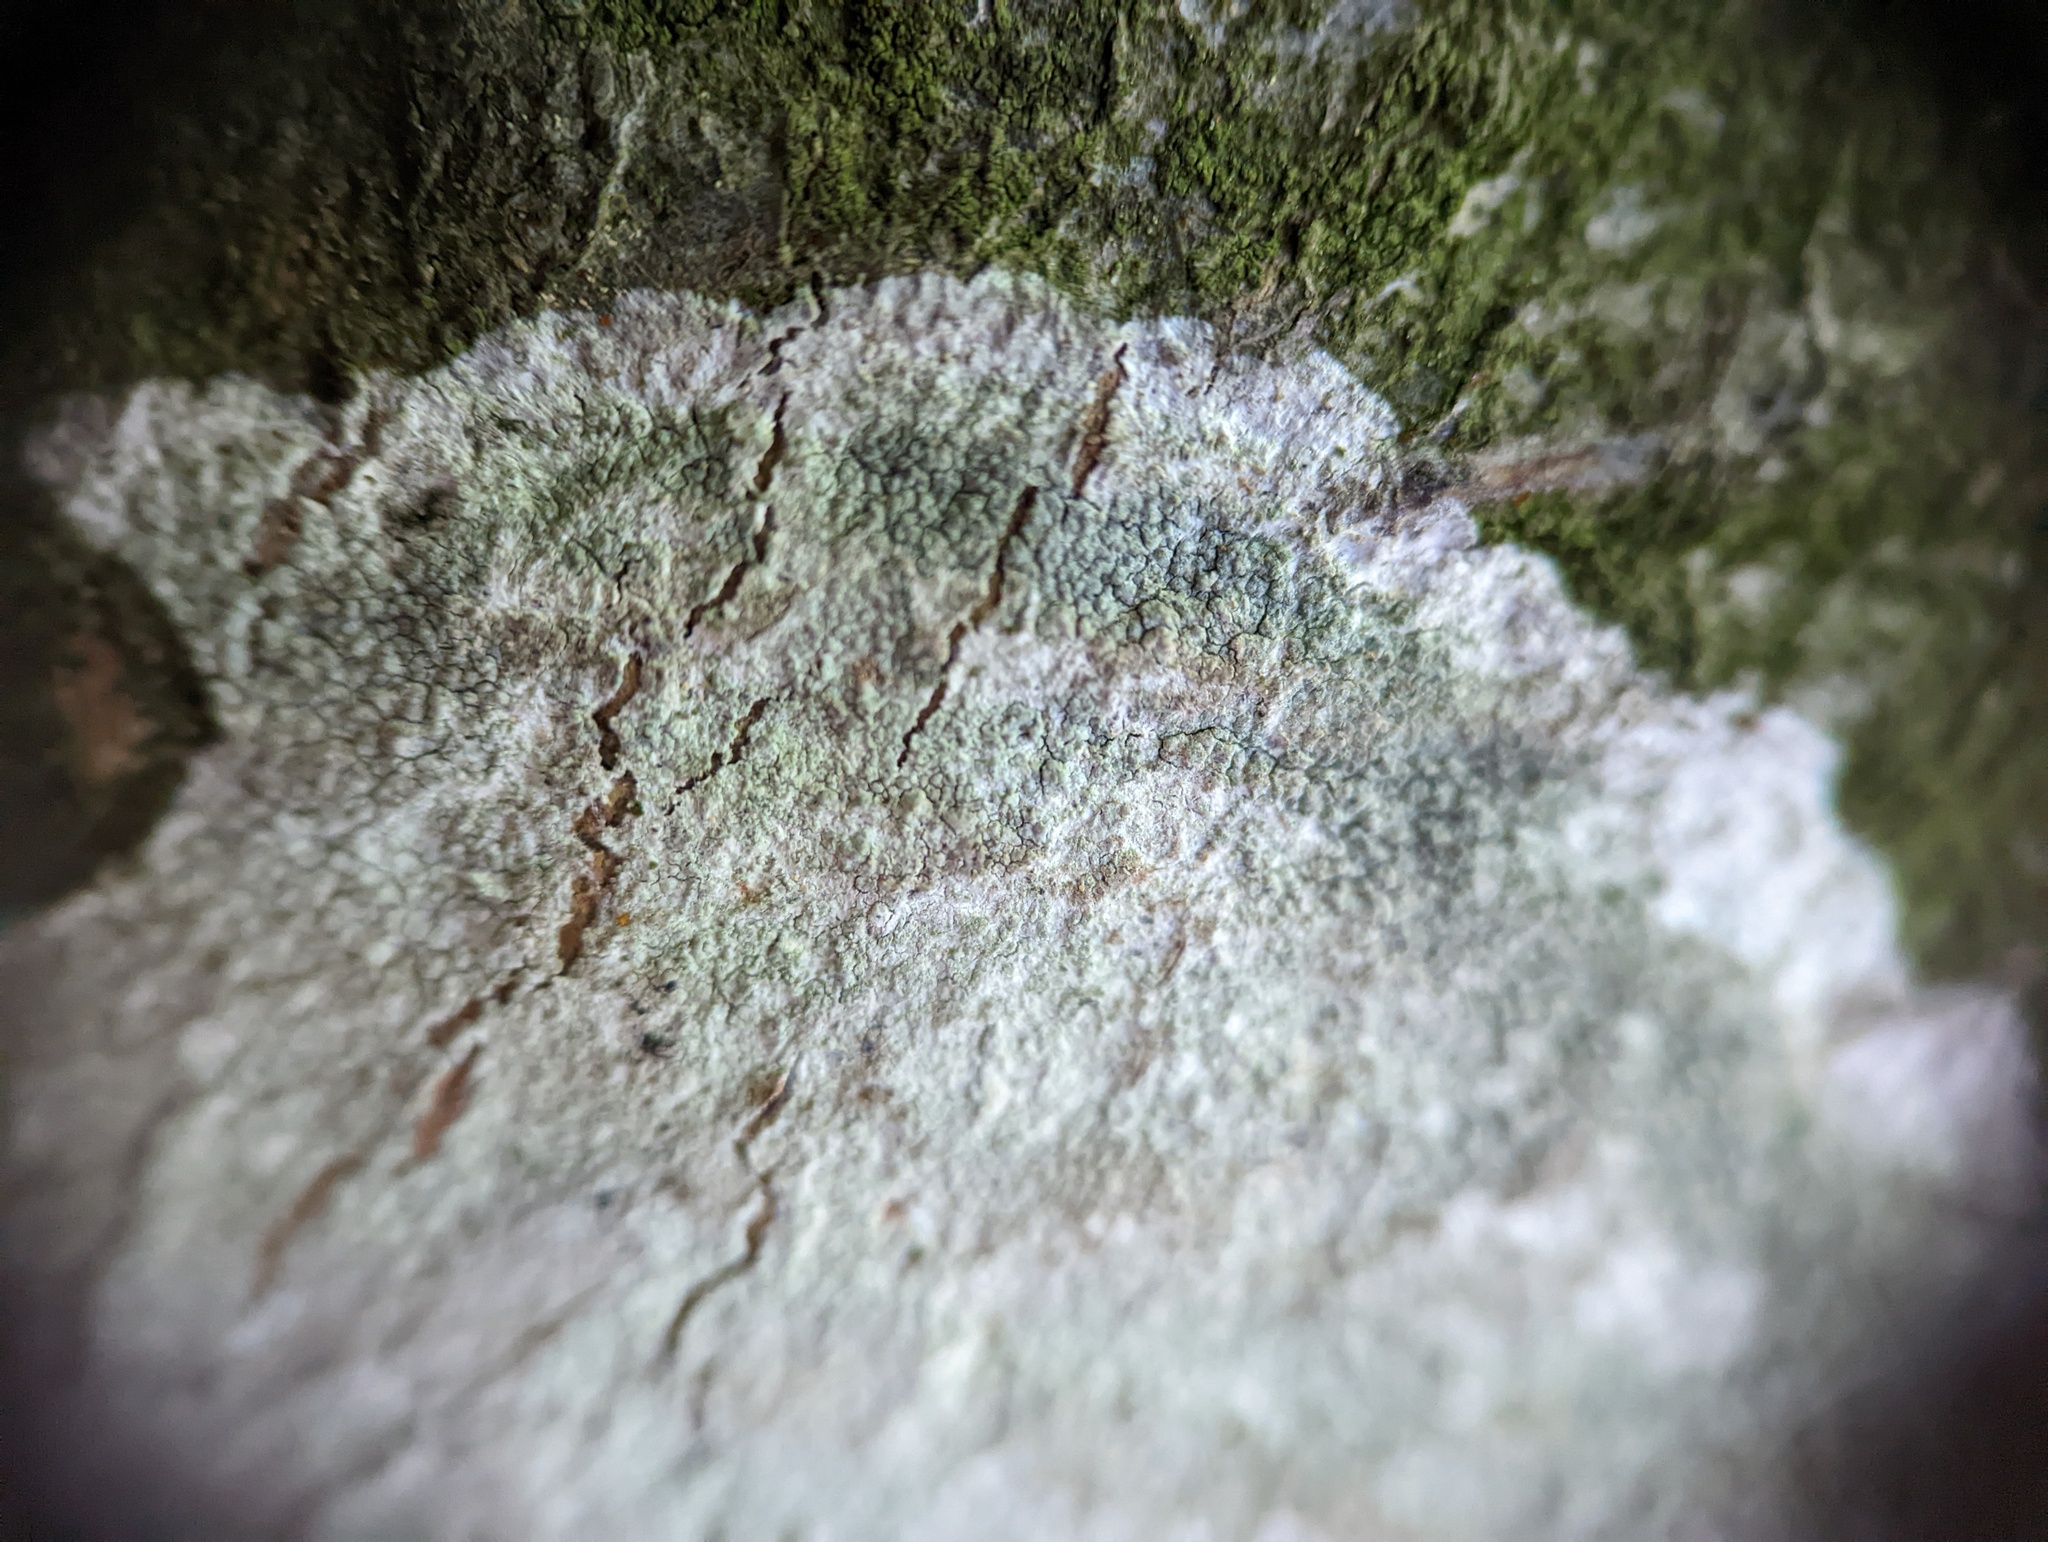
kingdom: Fungi
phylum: Ascomycota
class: Lecanoromycetes
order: Ostropales
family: Phlyctidaceae
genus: Phlyctis
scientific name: Phlyctis argena
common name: Whitewash lichen
